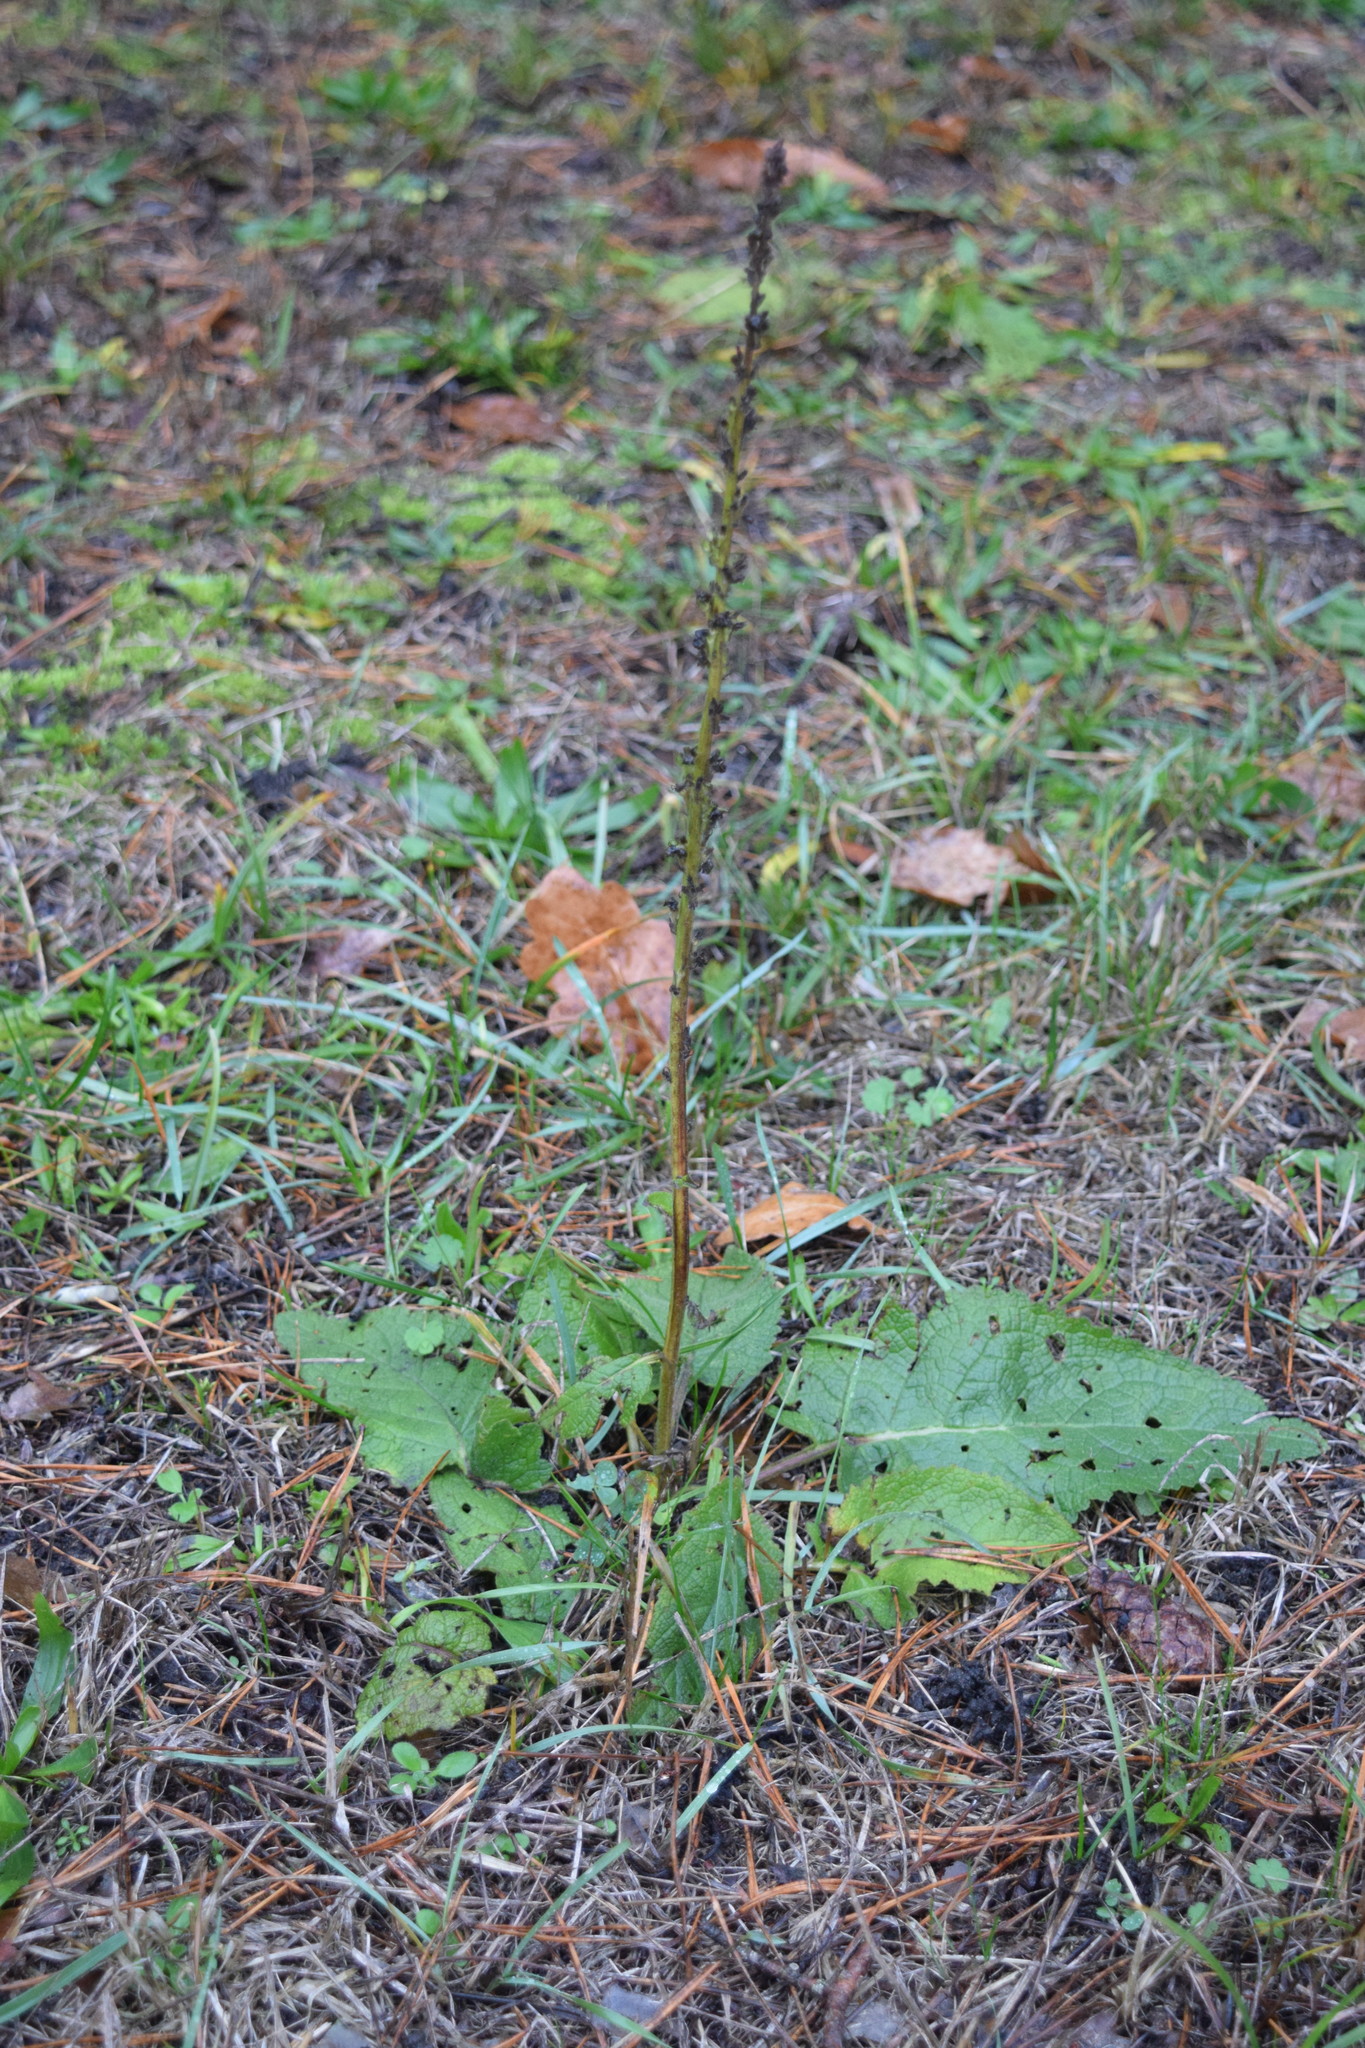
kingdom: Plantae
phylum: Tracheophyta
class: Magnoliopsida
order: Lamiales
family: Scrophulariaceae
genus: Verbascum
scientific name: Verbascum nigrum
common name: Dark mullein
